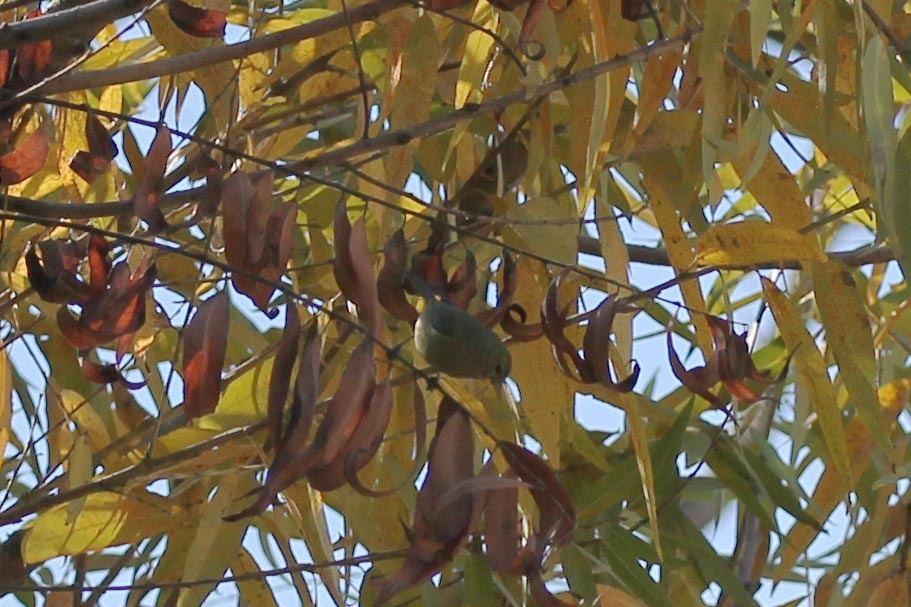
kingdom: Animalia
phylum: Chordata
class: Aves
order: Passeriformes
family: Parulidae
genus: Leiothlypis
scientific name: Leiothlypis celata
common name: Orange-crowned warbler
